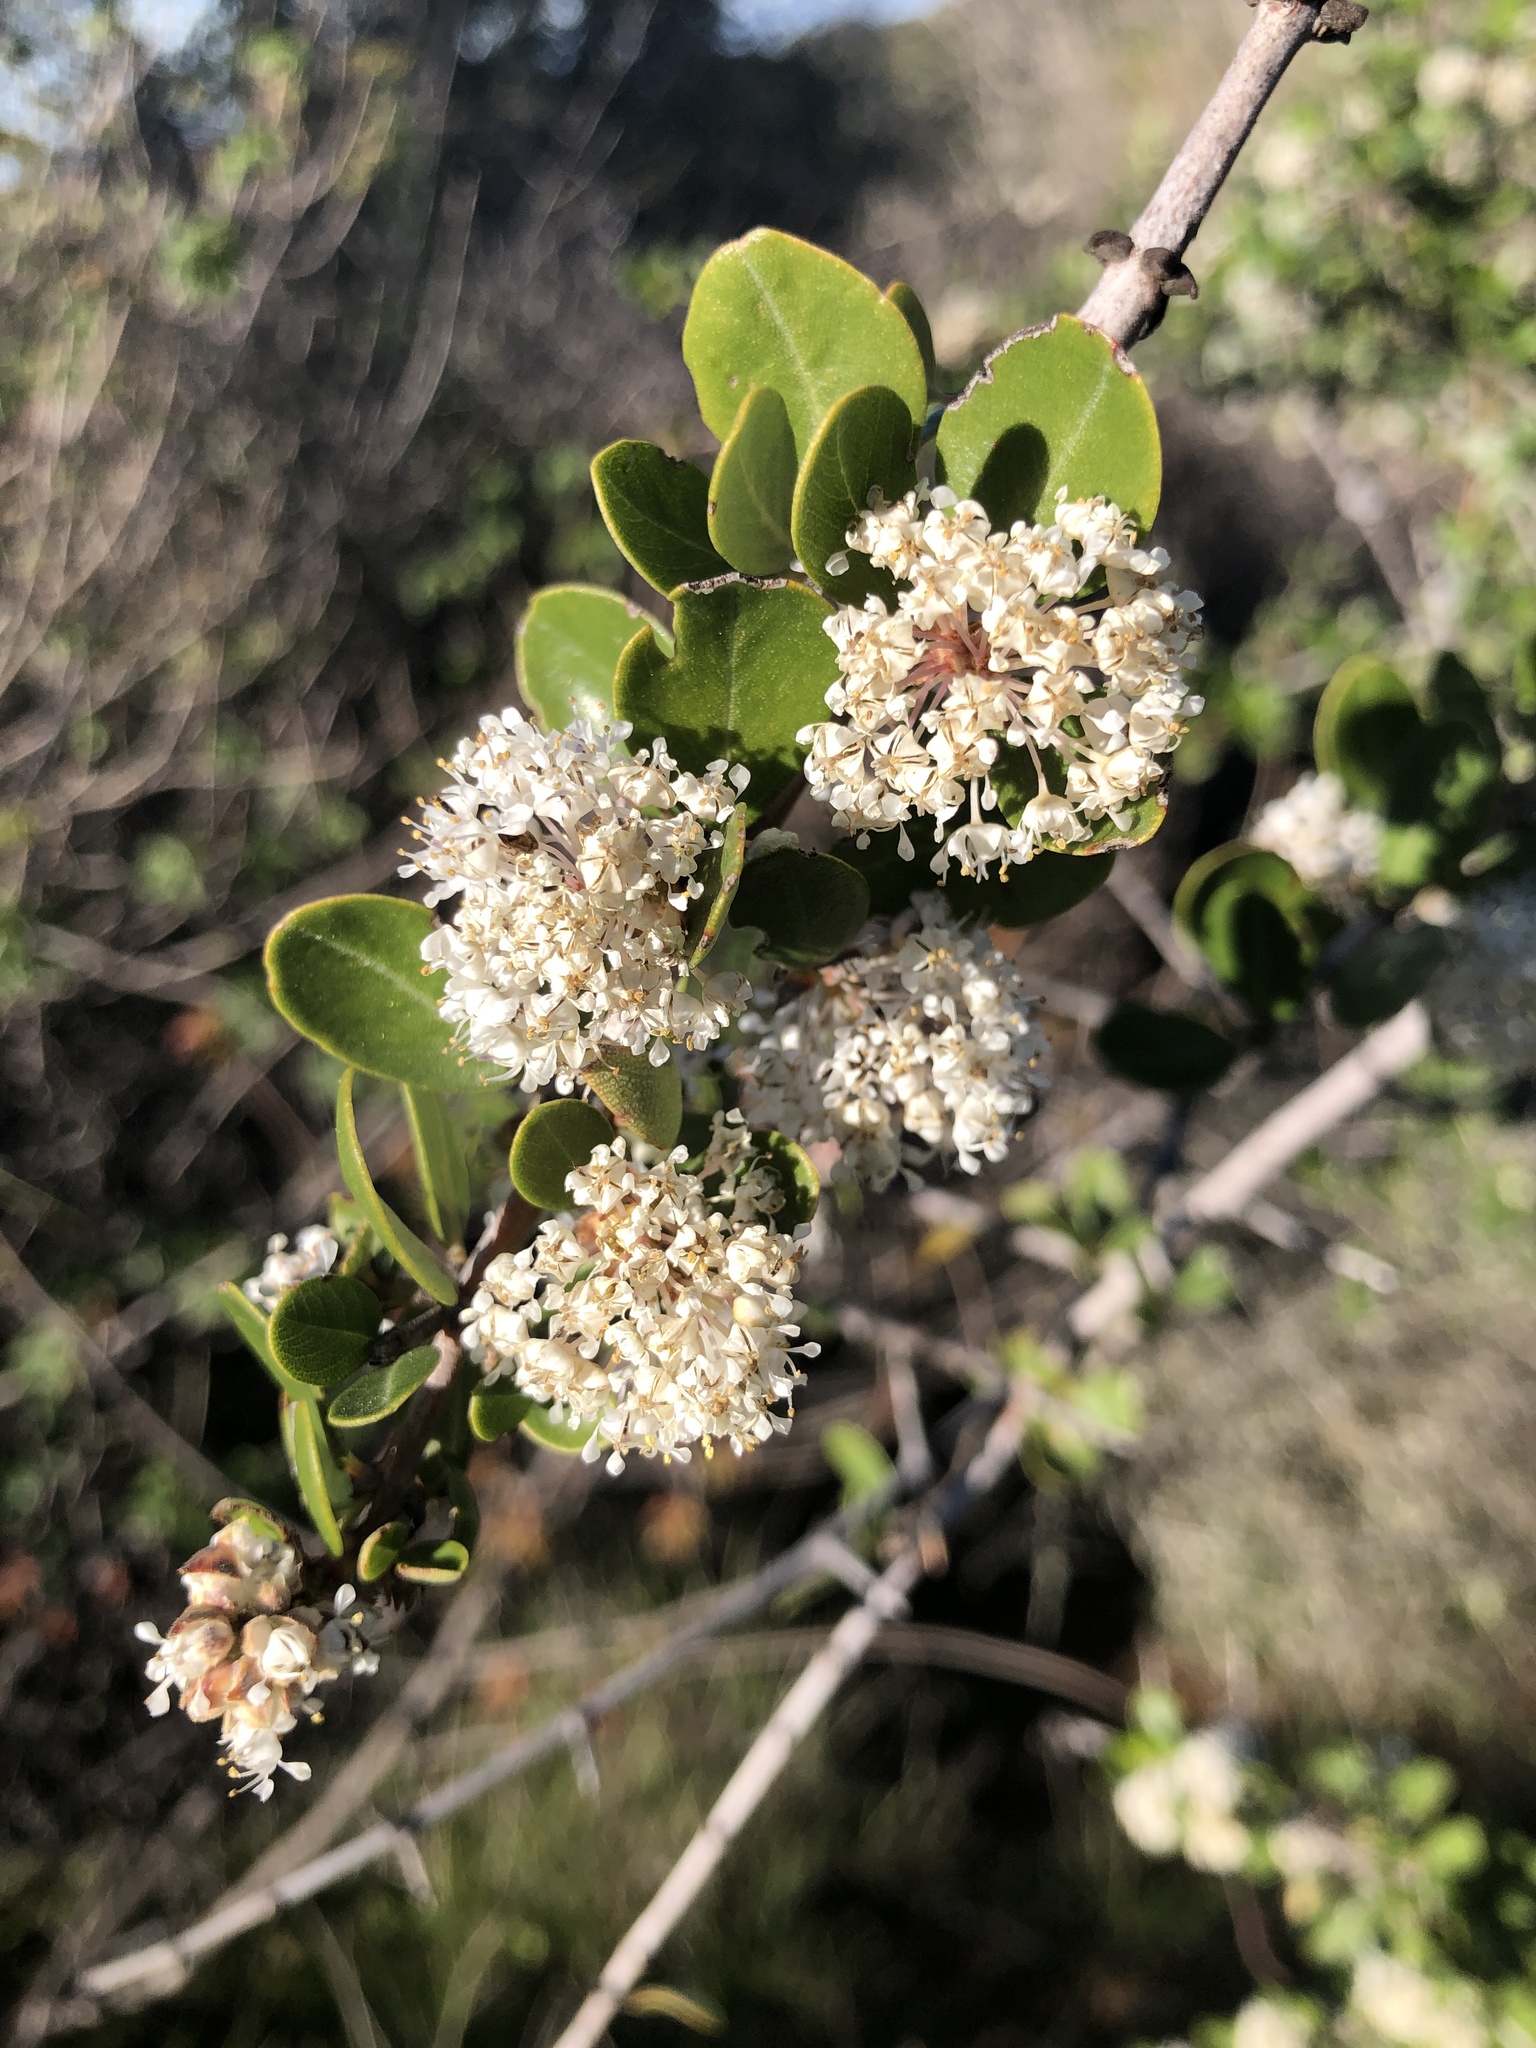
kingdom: Plantae
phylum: Tracheophyta
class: Magnoliopsida
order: Rosales
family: Rhamnaceae
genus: Ceanothus
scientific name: Ceanothus cuneatus
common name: Cuneate ceanothus
